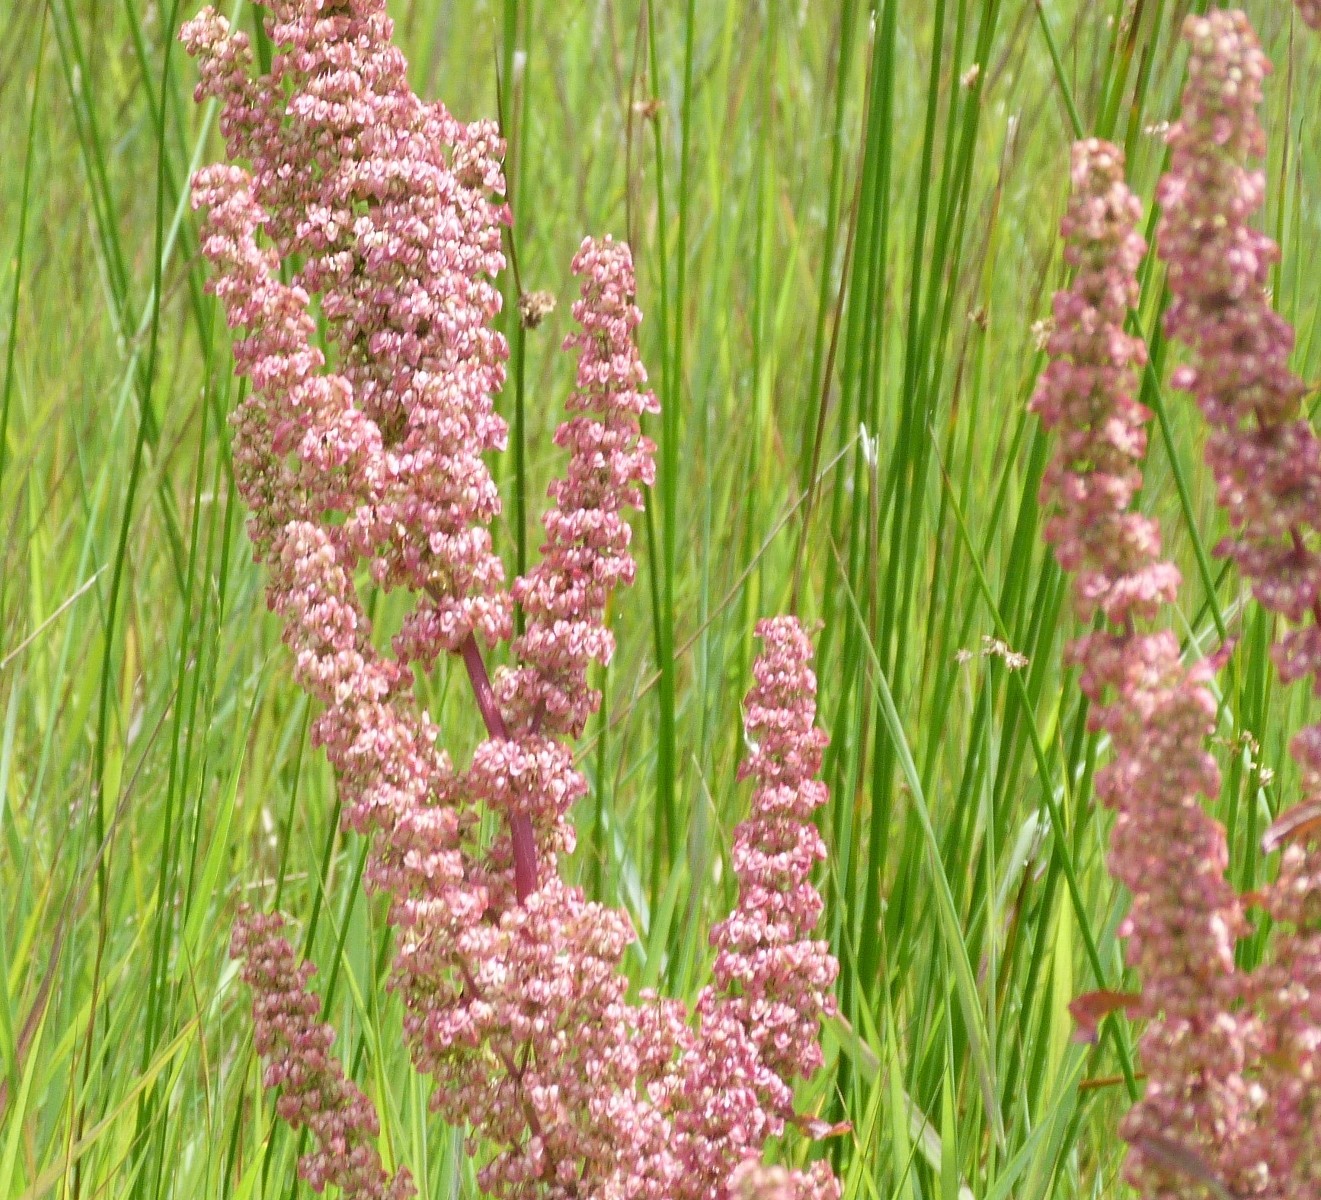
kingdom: Plantae
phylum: Tracheophyta
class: Magnoliopsida
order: Caryophyllales
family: Polygonaceae
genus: Rumex
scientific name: Rumex obtusifolius
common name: Bitter dock
